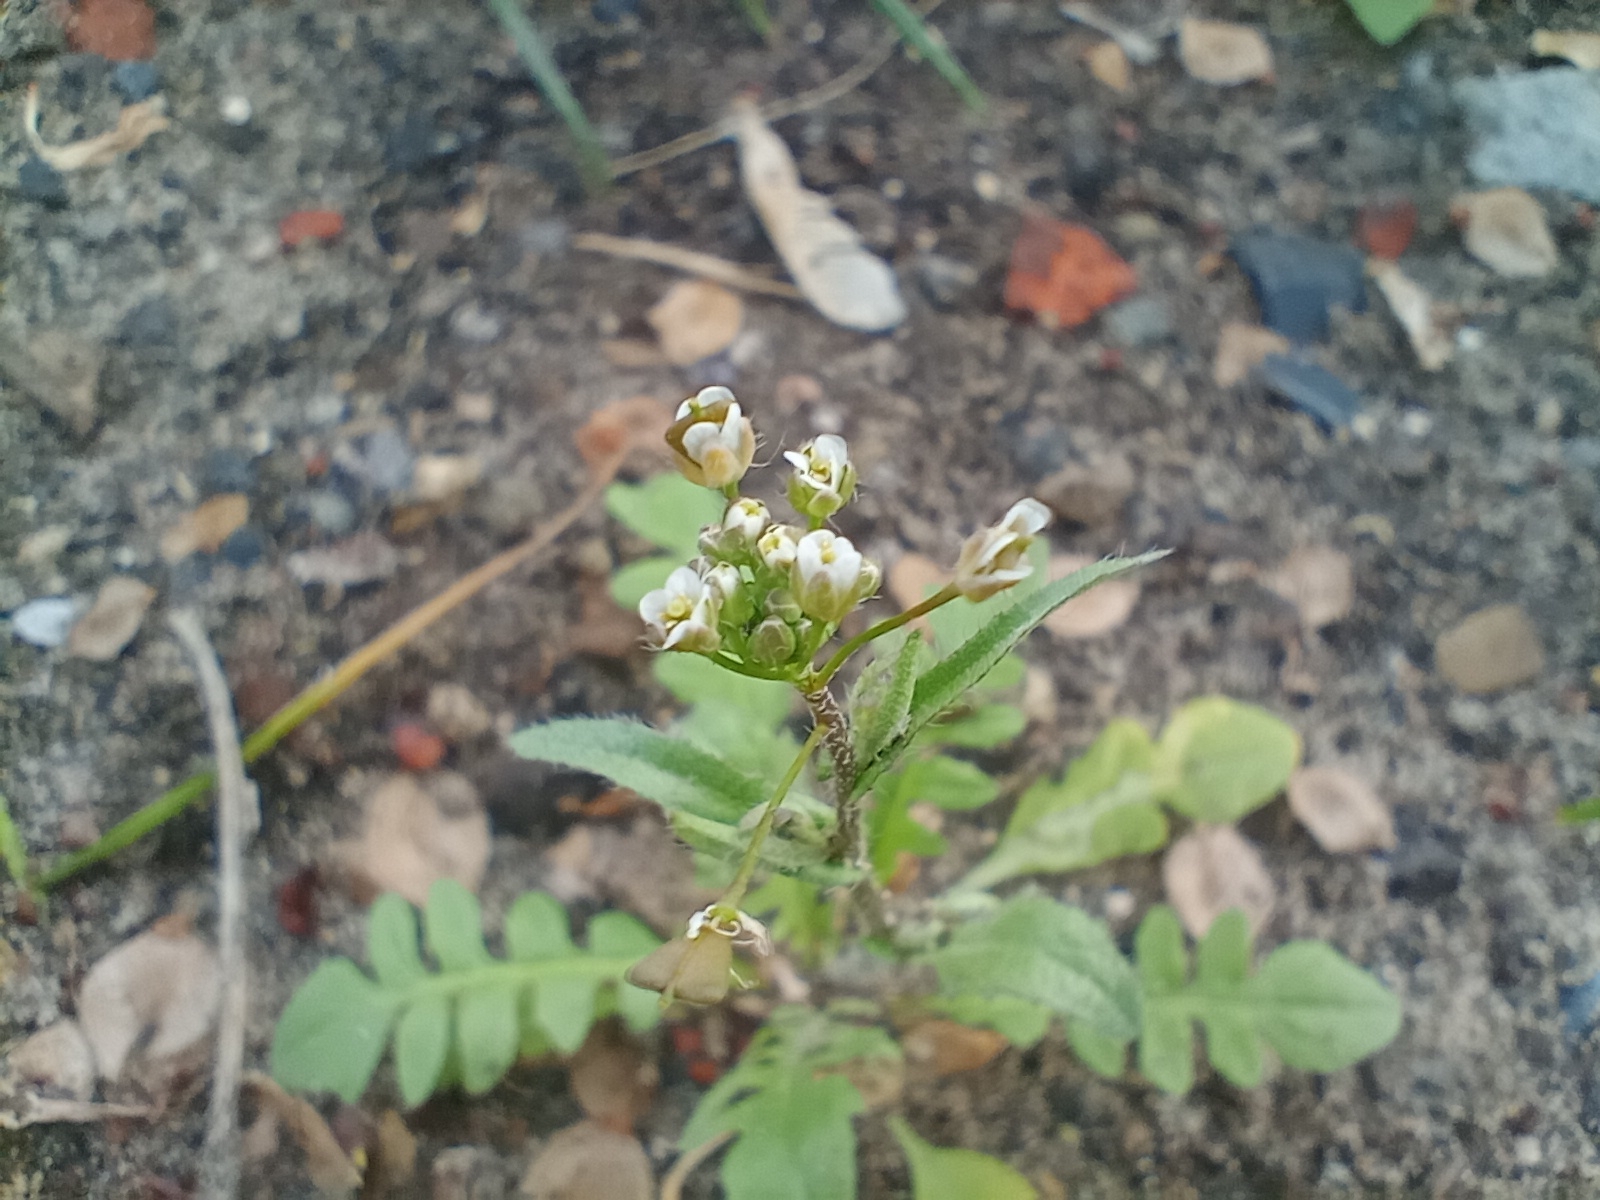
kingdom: Plantae
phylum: Tracheophyta
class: Magnoliopsida
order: Brassicales
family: Brassicaceae
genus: Capsella
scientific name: Capsella bursa-pastoris
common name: Shepherd's purse
